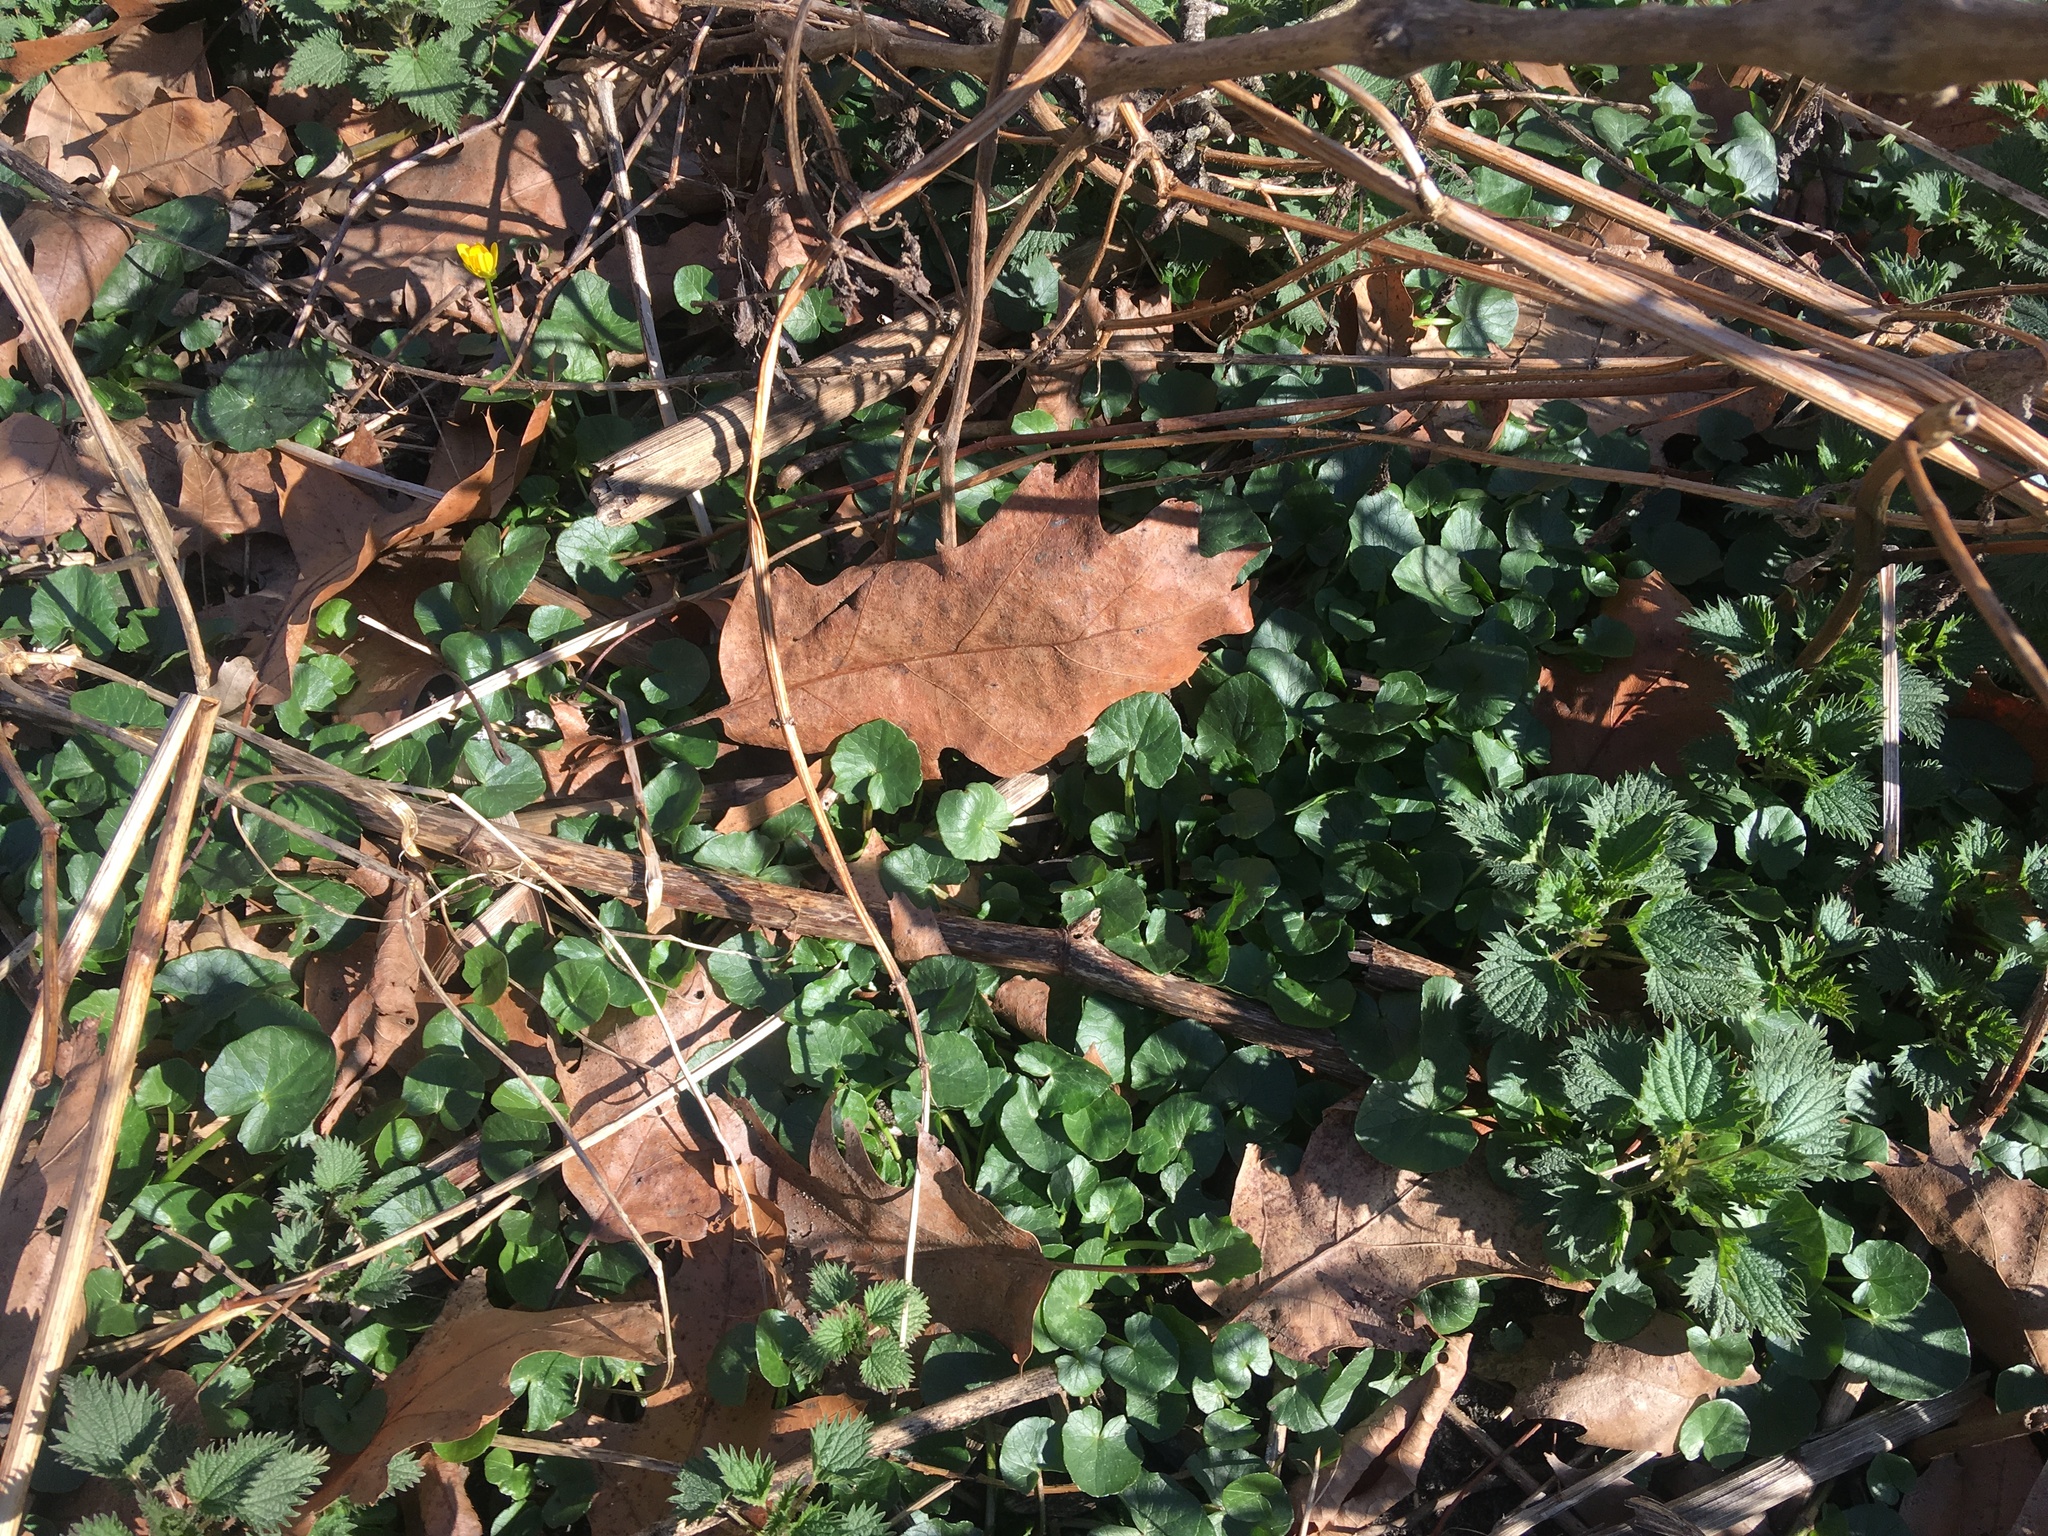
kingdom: Plantae
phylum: Tracheophyta
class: Magnoliopsida
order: Ranunculales
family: Ranunculaceae
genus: Ficaria
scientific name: Ficaria verna
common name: Lesser celandine
